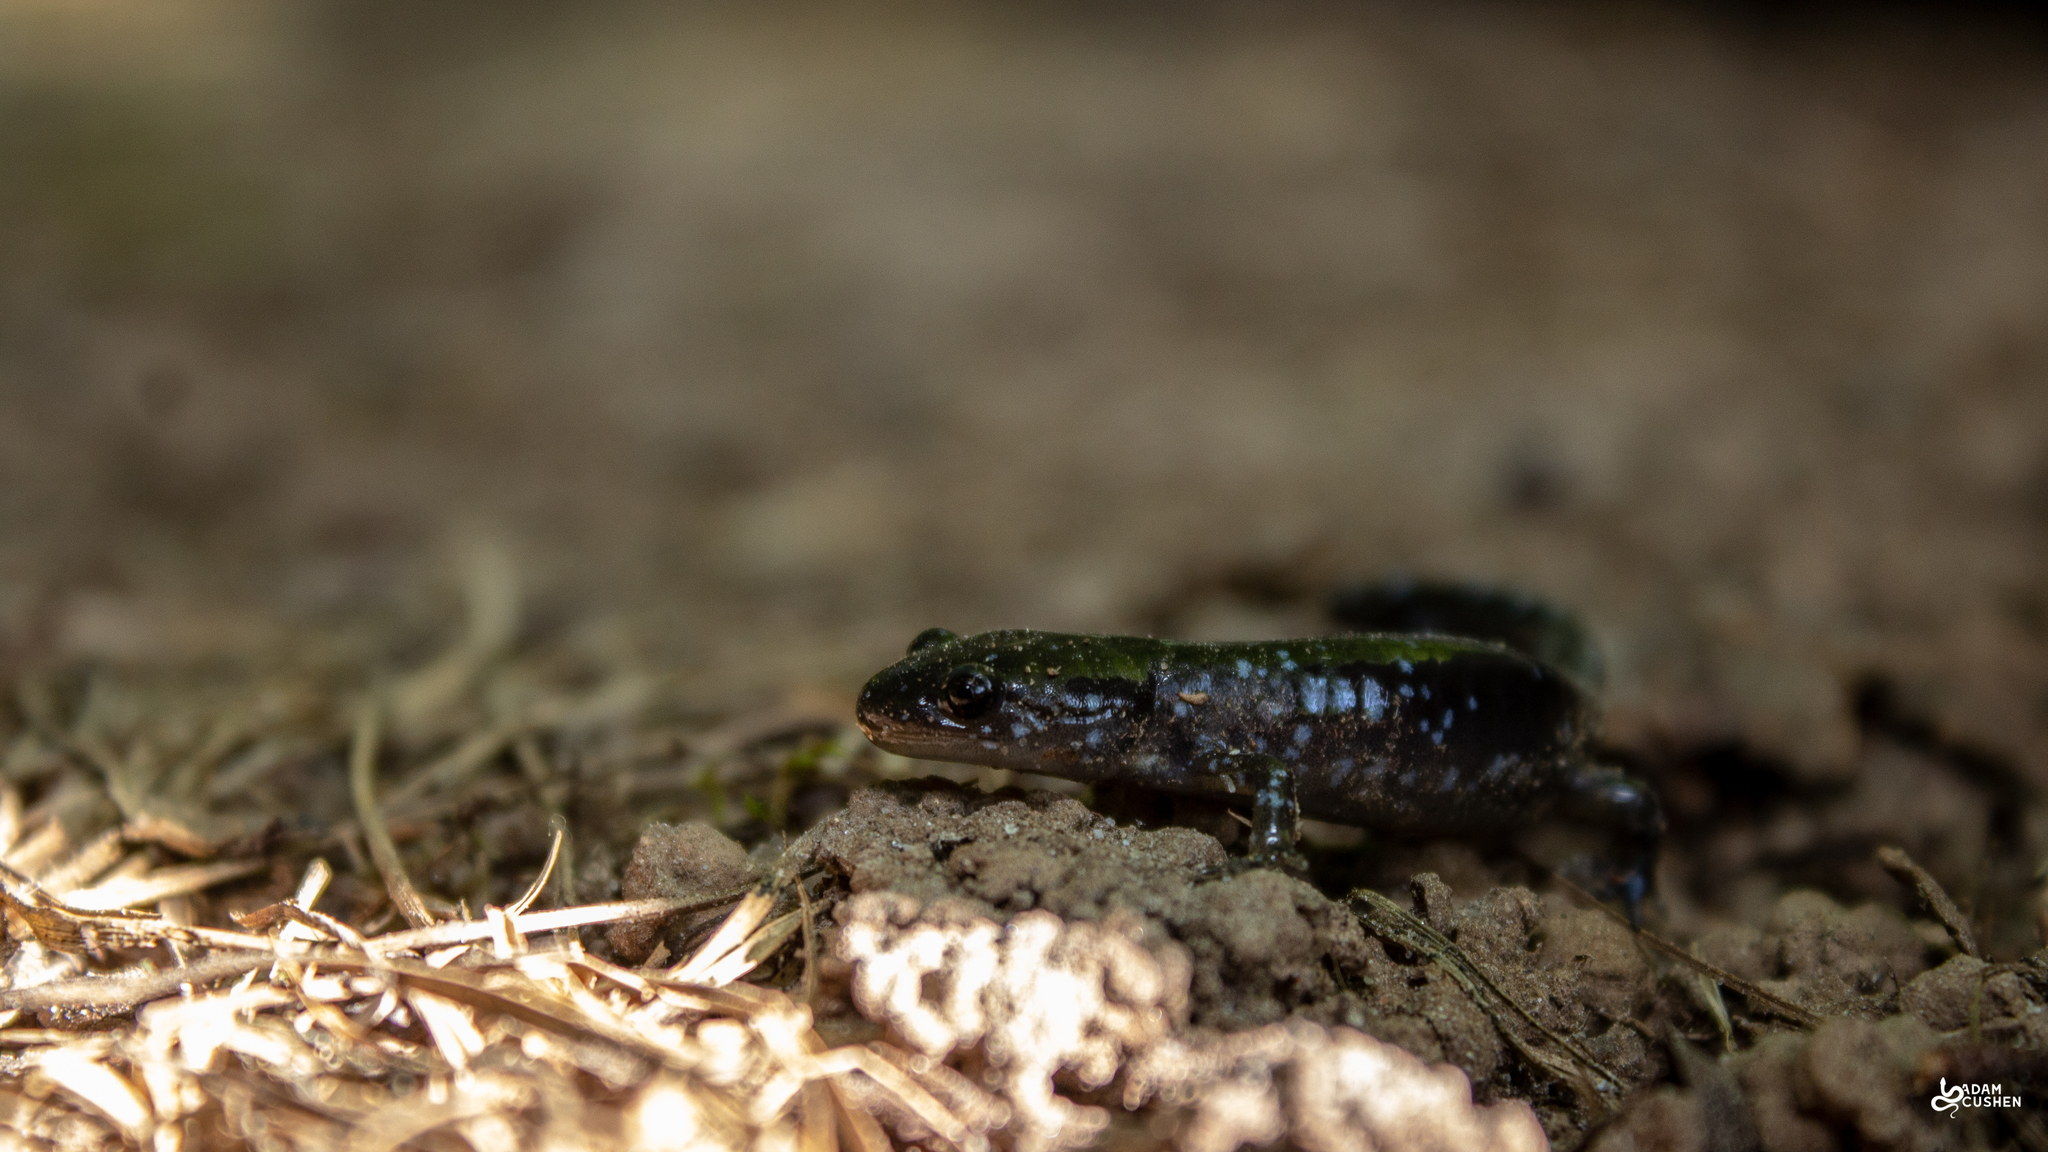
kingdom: Animalia
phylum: Chordata
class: Amphibia
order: Caudata
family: Ambystomatidae
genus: Ambystoma
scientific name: Ambystoma laterale
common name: Blue-spotted salamander
